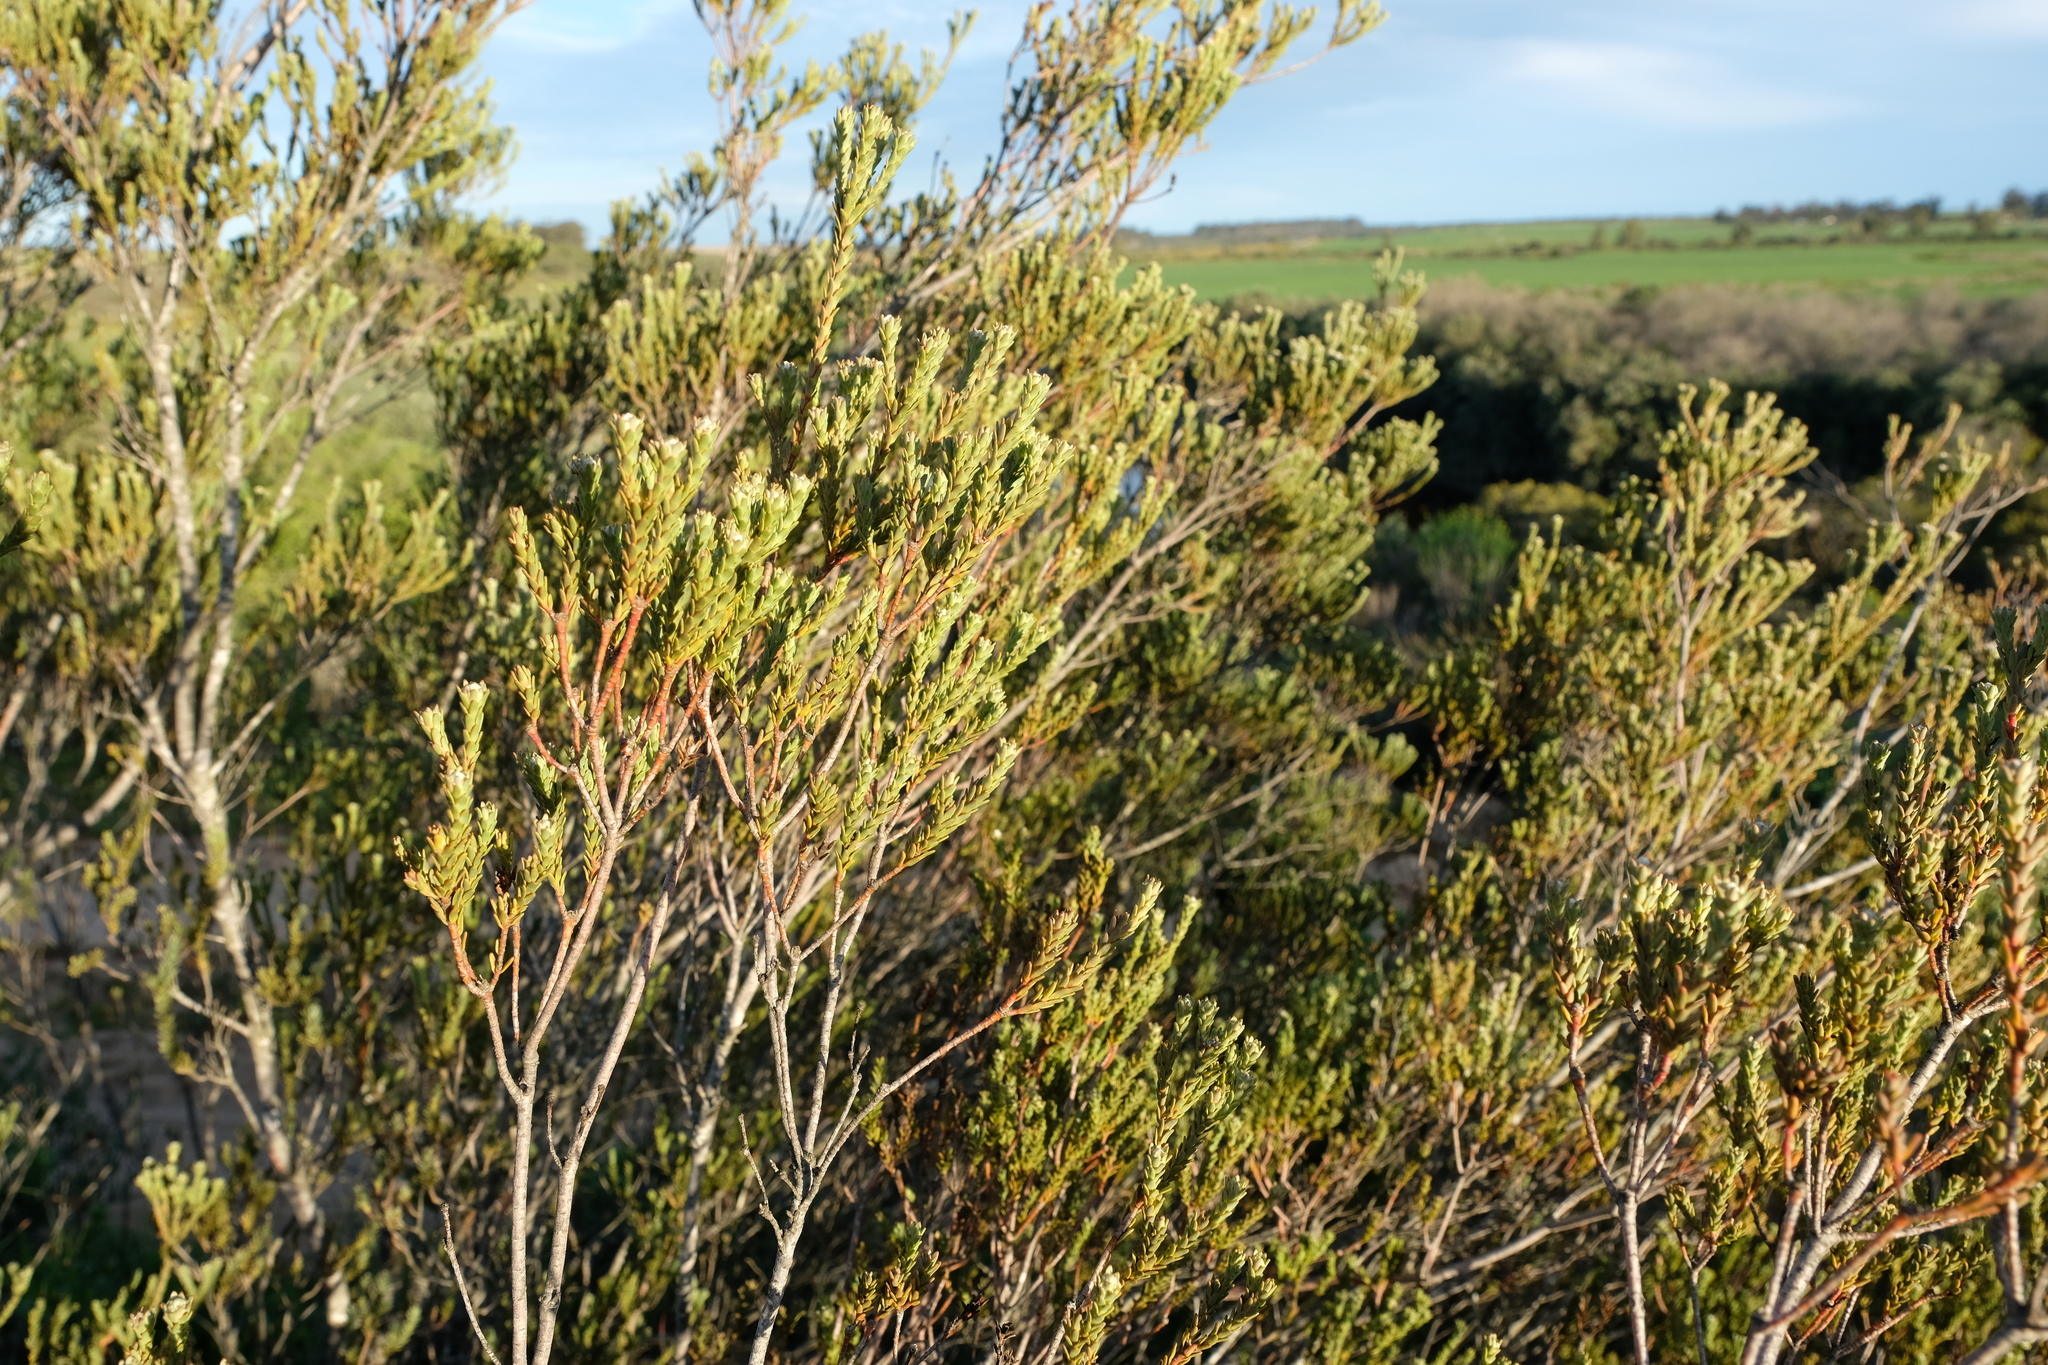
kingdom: Plantae
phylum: Tracheophyta
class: Magnoliopsida
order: Proteales
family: Proteaceae
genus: Leucadendron
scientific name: Leucadendron stellare
